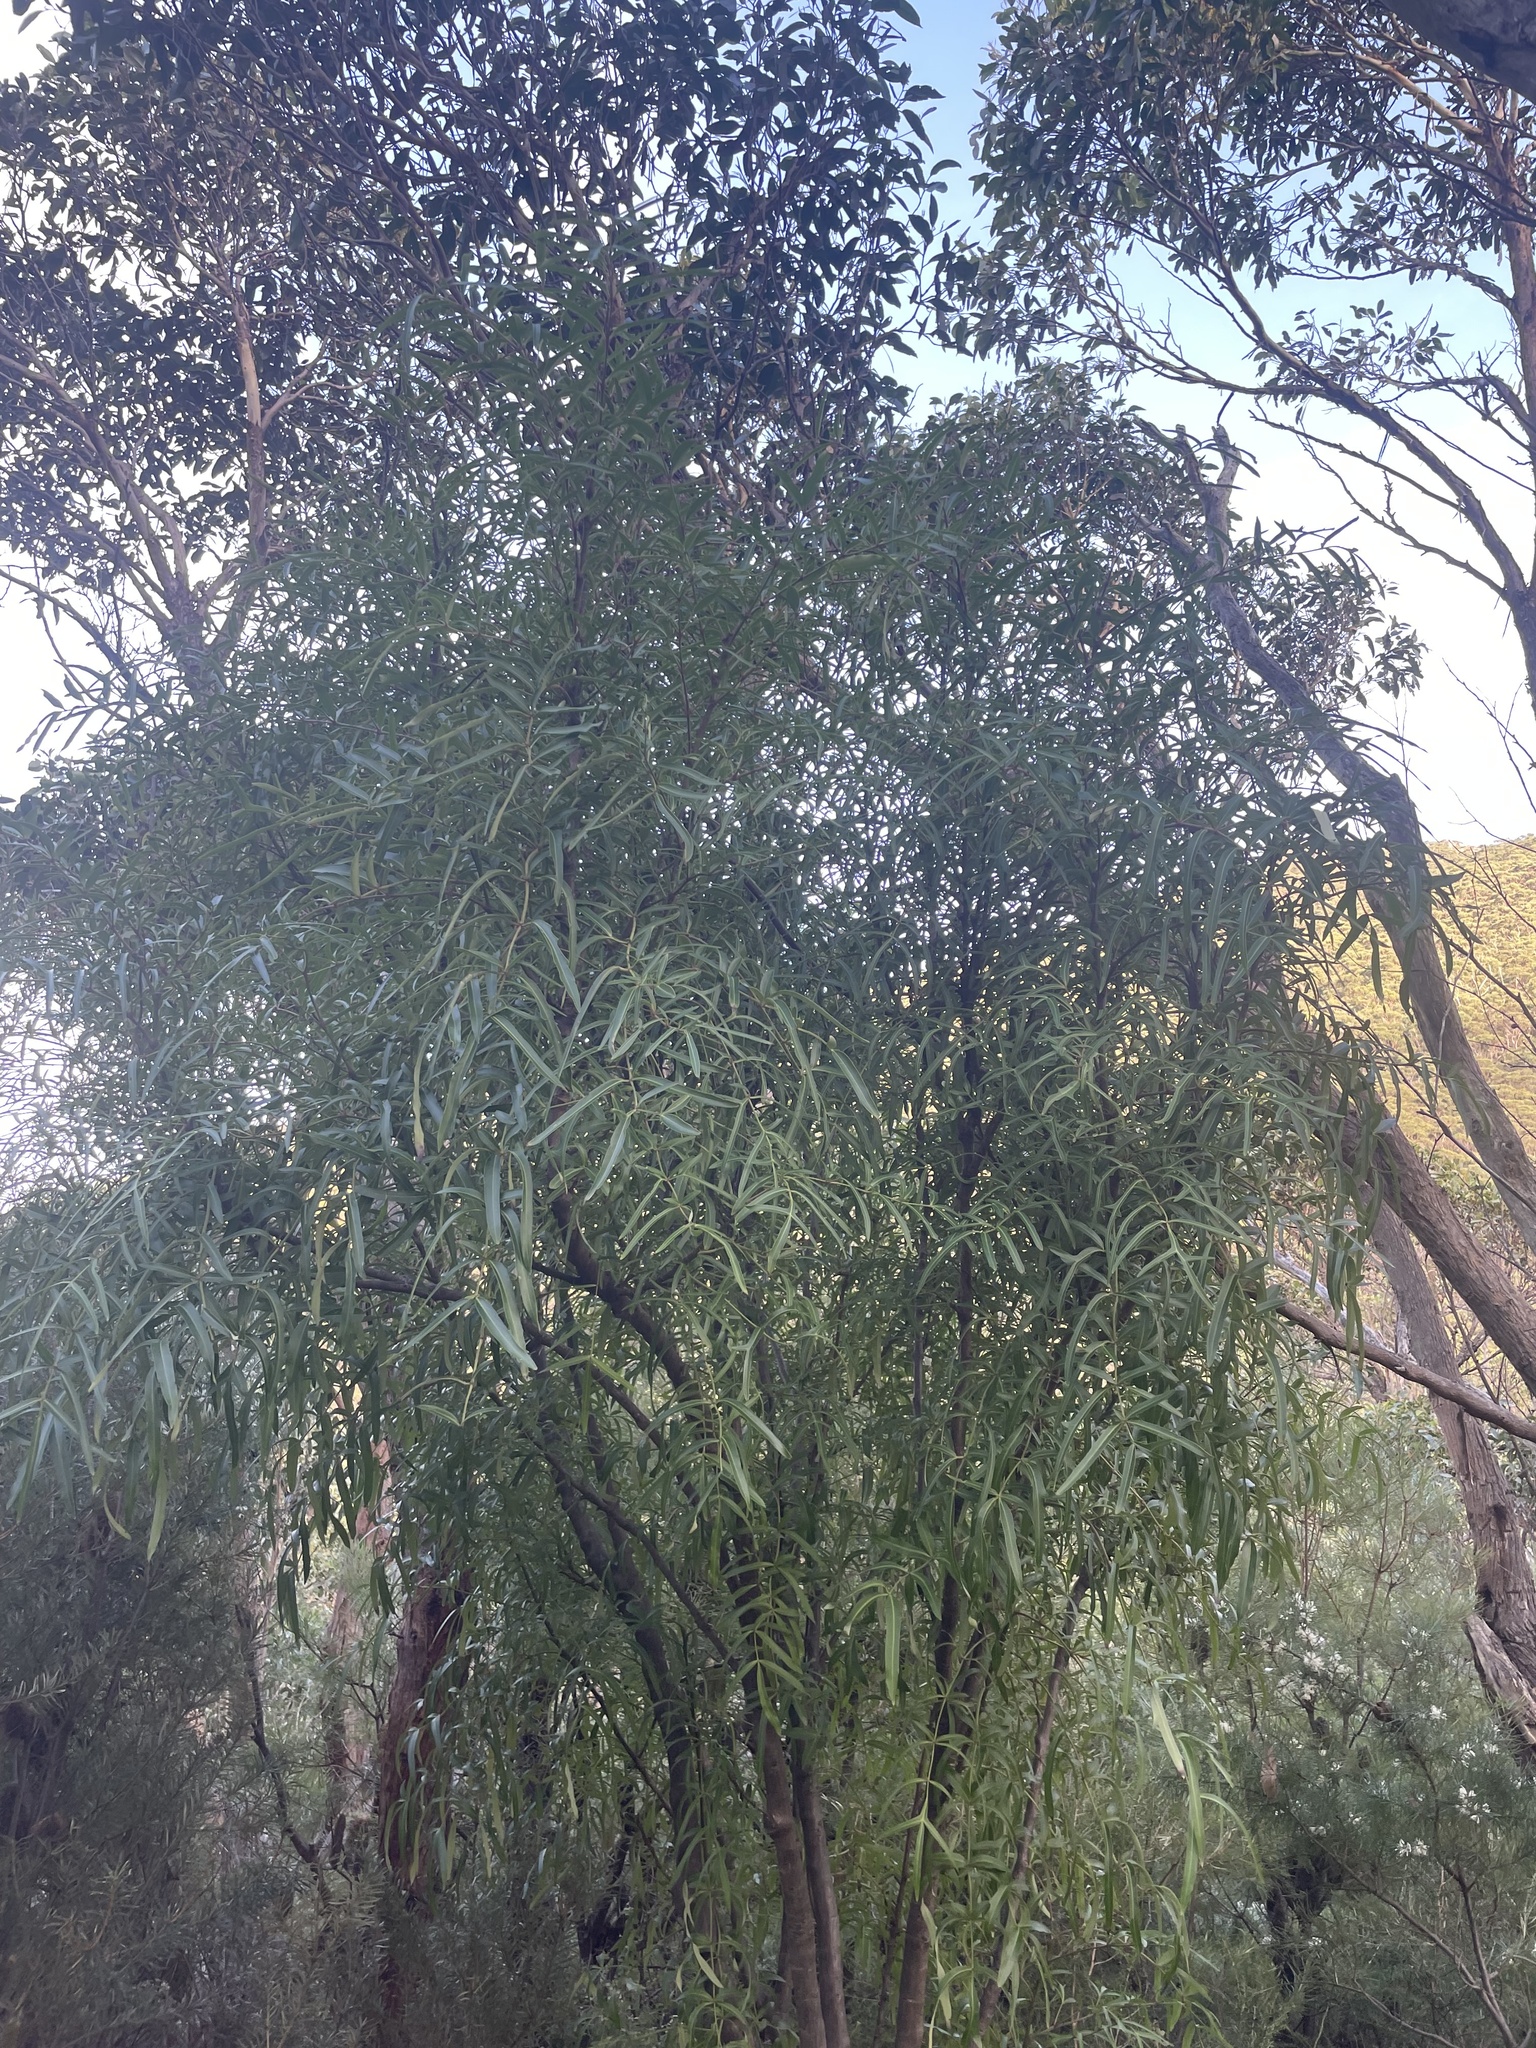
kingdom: Plantae
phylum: Tracheophyta
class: Magnoliopsida
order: Apiales
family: Araliaceae
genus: Polyscias
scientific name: Polyscias sambucifolia
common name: Elderberry-ash
